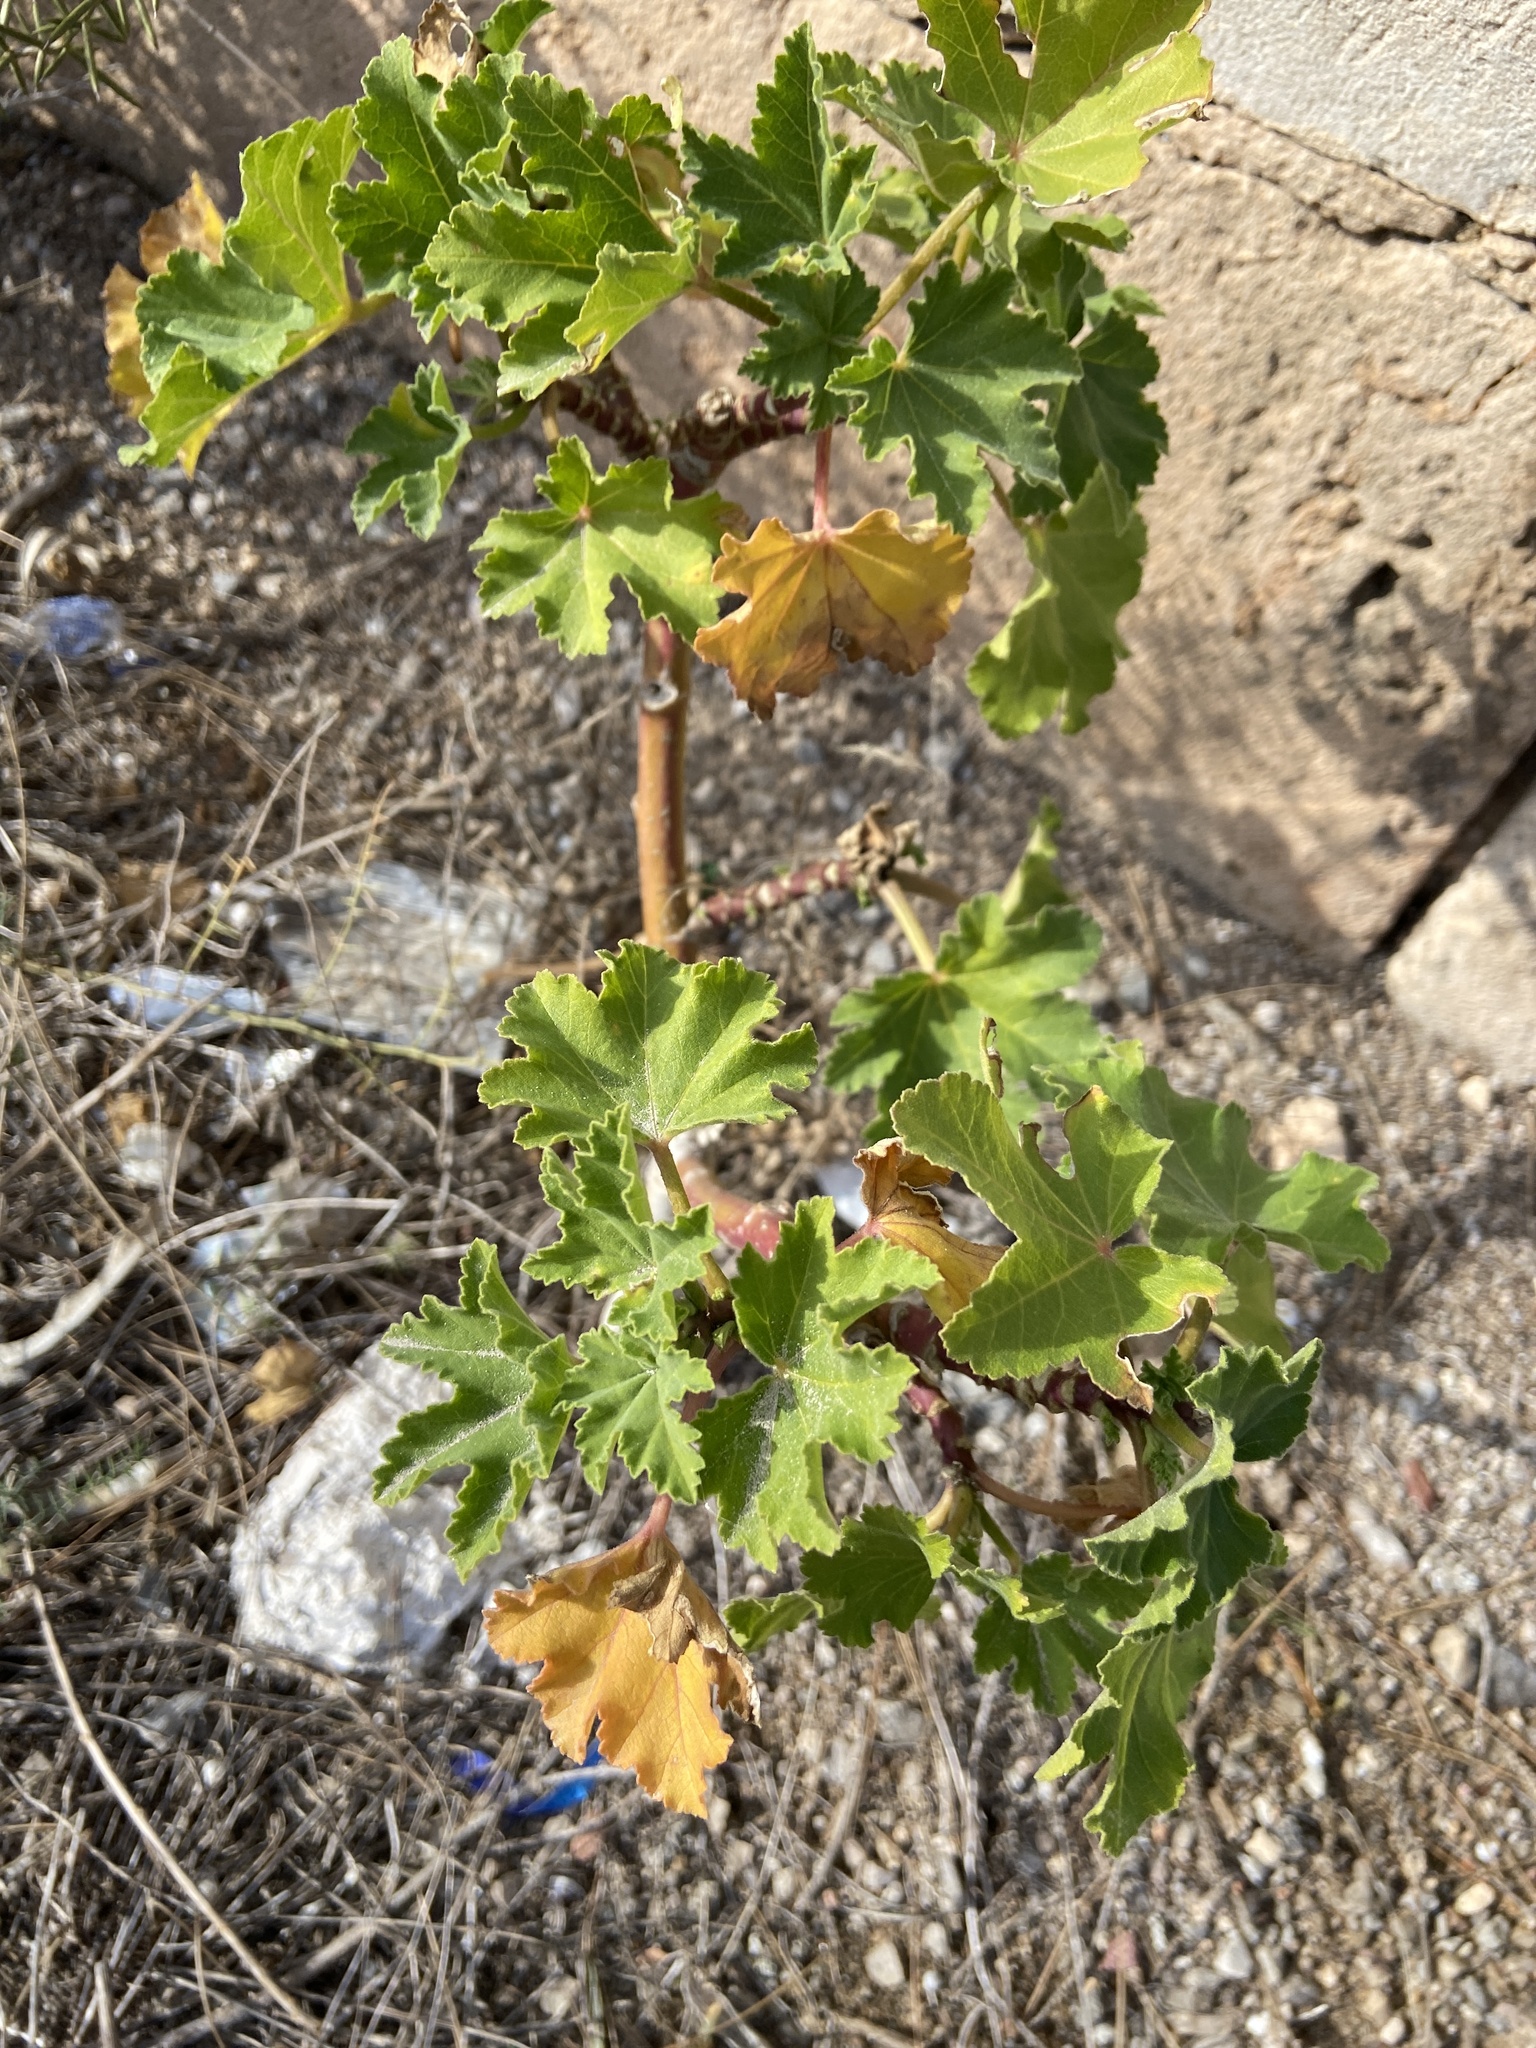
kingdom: Plantae
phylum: Tracheophyta
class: Magnoliopsida
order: Malvales
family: Malvaceae
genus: Malva
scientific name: Malva arborea
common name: Tree mallow
